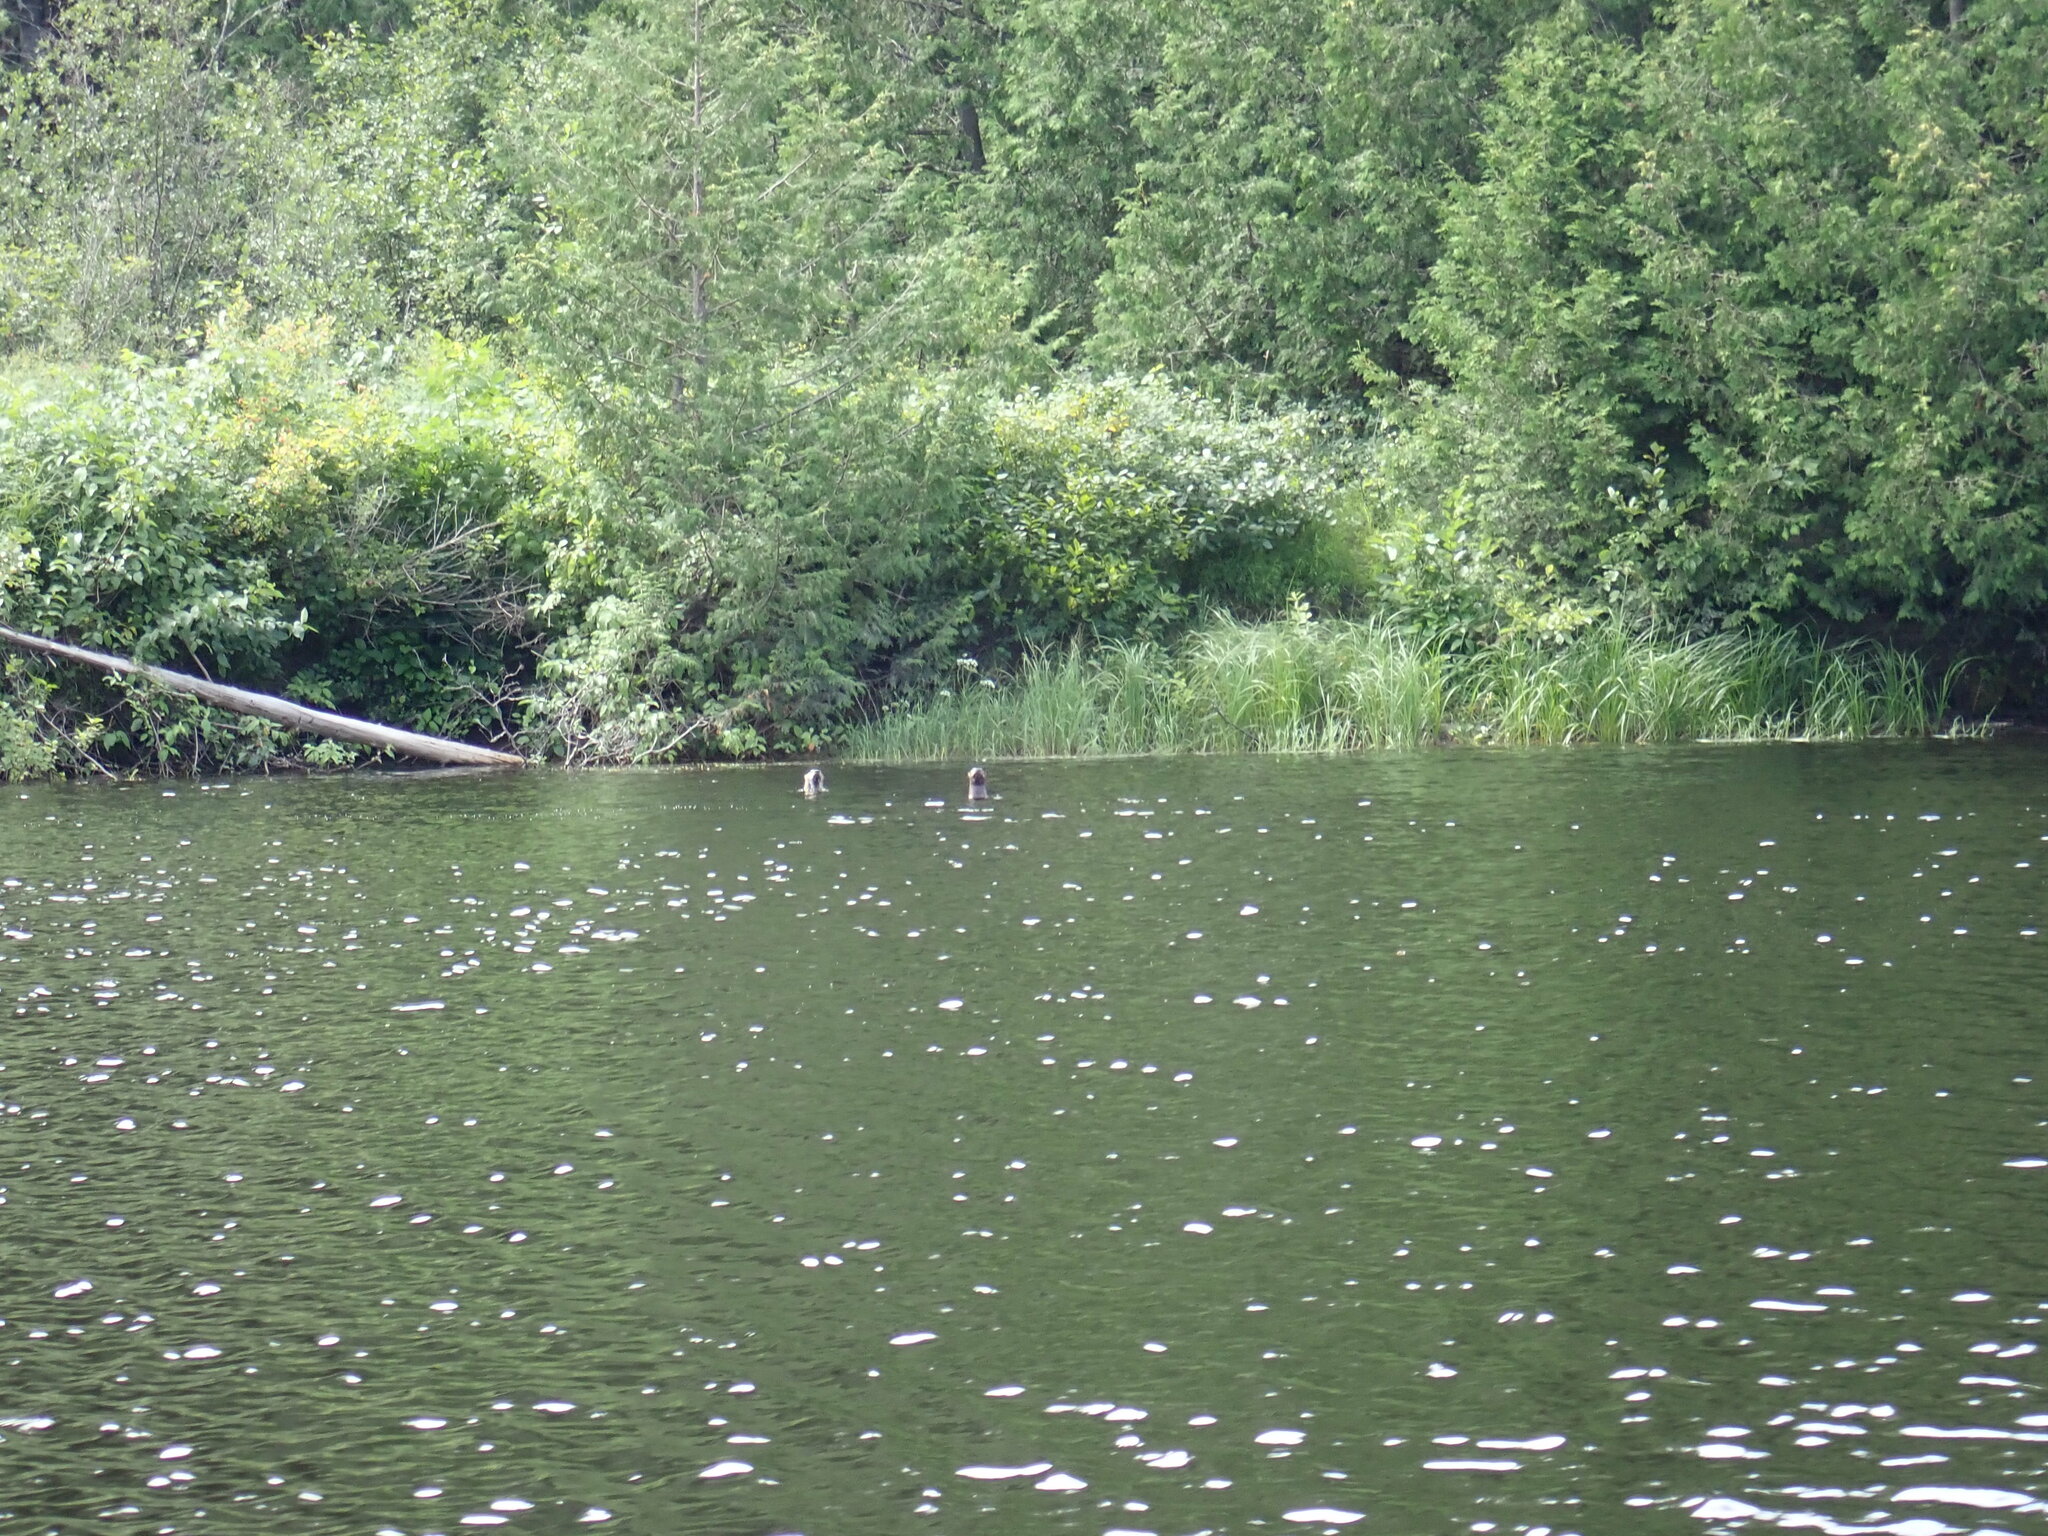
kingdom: Animalia
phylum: Chordata
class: Mammalia
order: Carnivora
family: Mustelidae
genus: Lontra
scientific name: Lontra canadensis
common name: North american river otter
